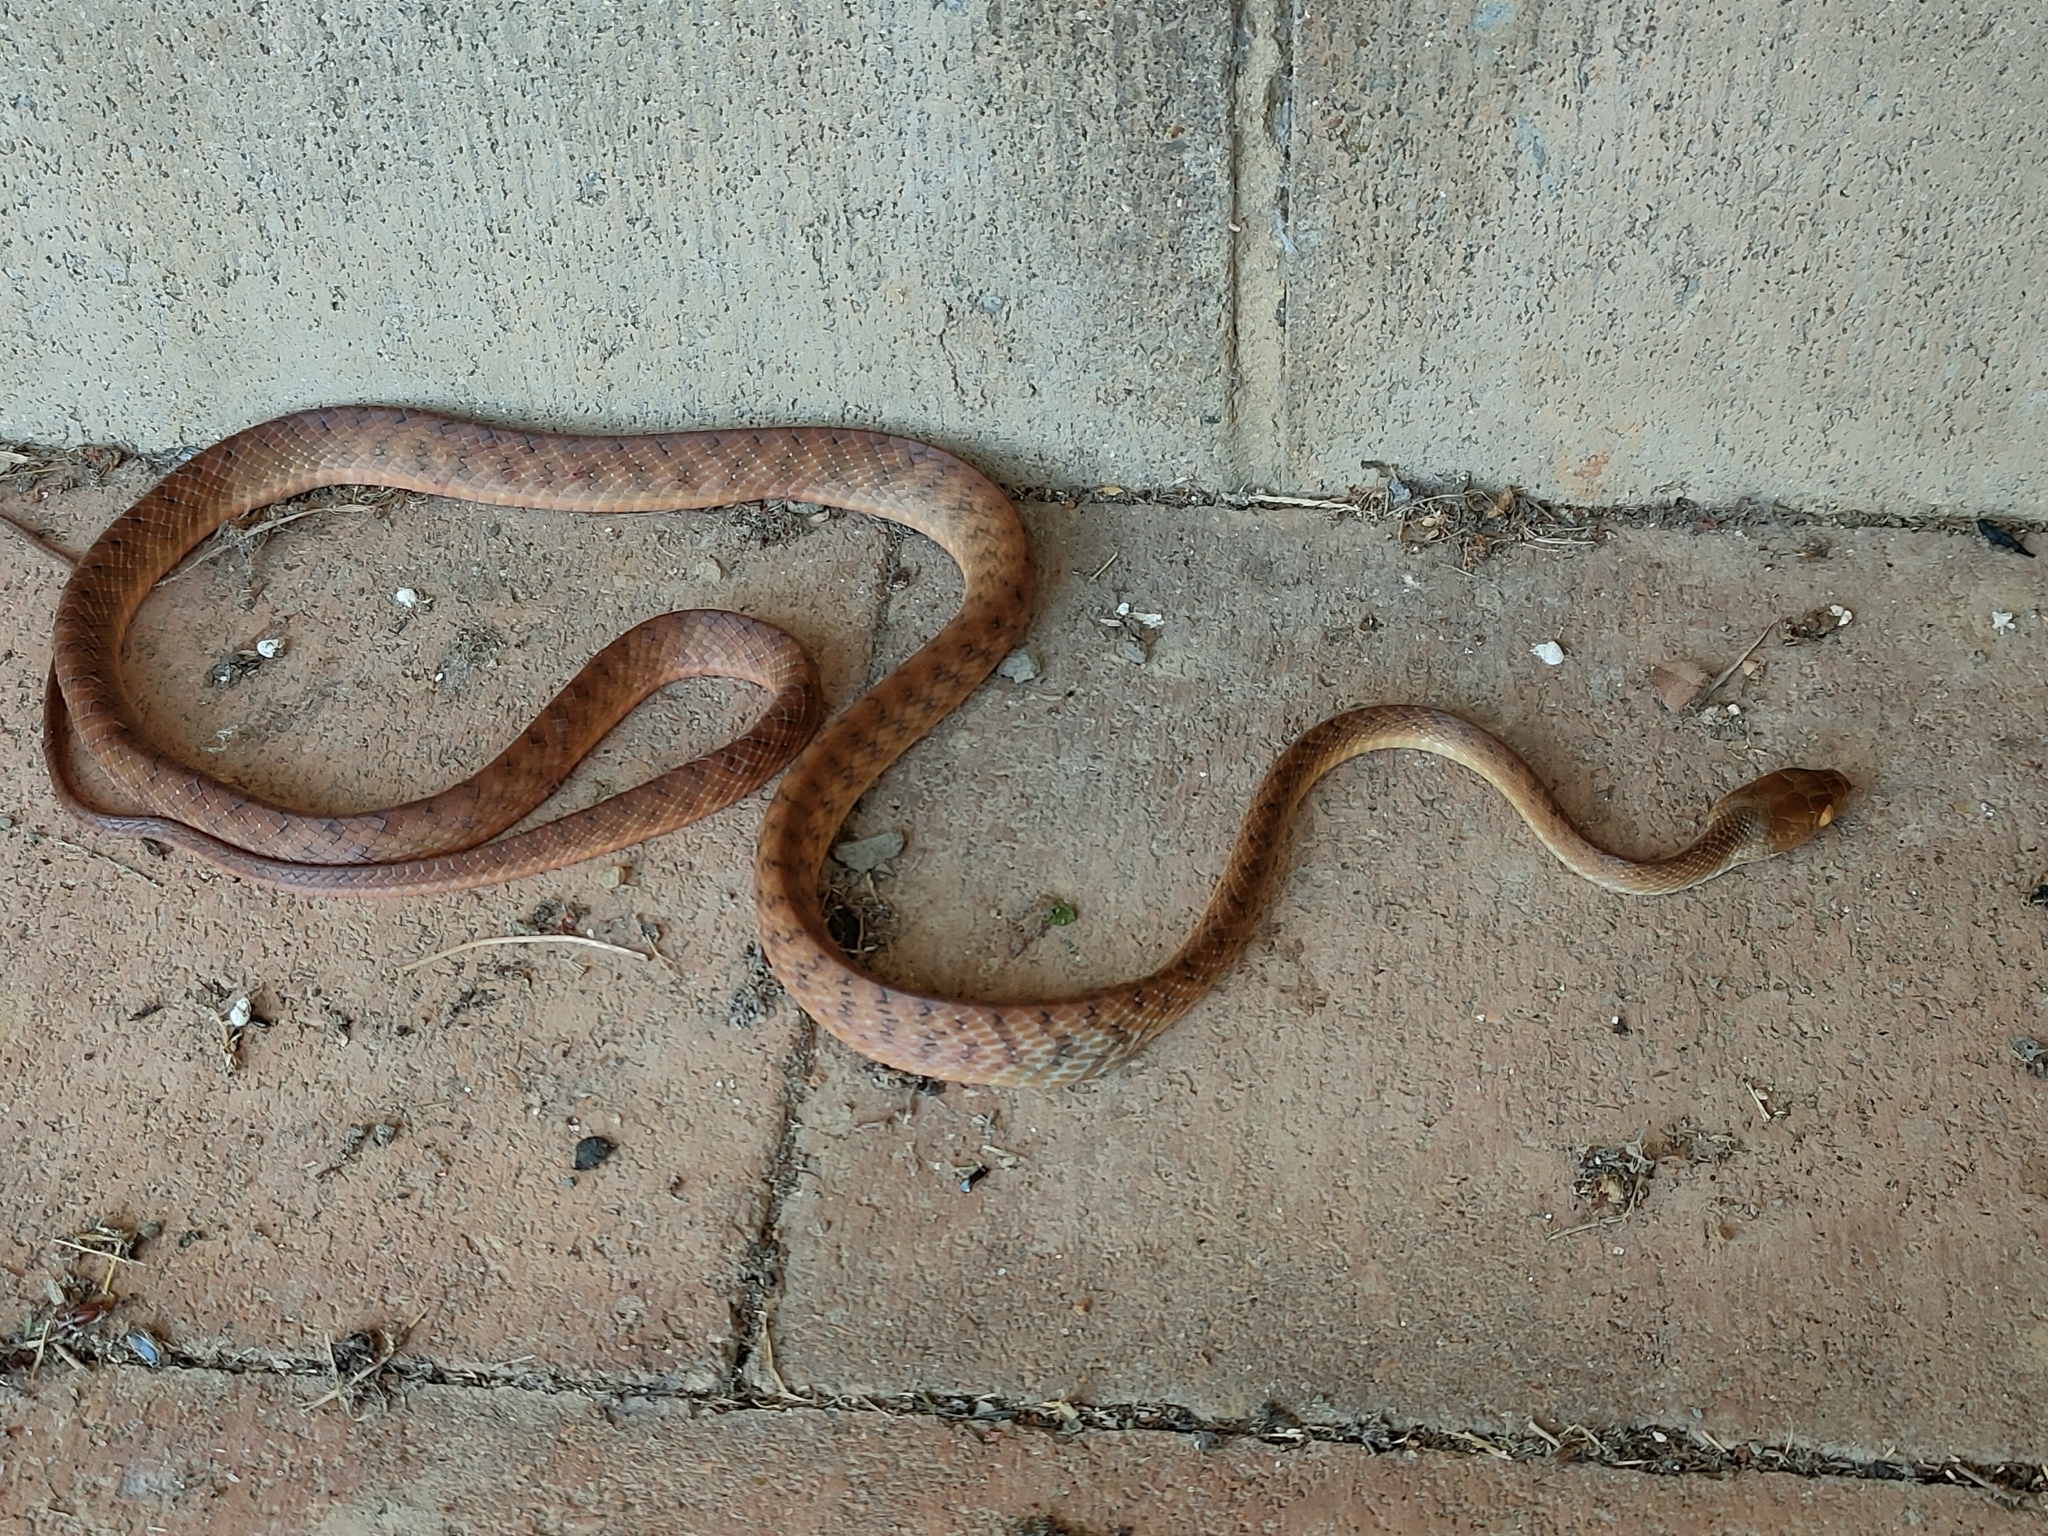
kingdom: Animalia
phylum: Chordata
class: Squamata
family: Colubridae
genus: Boiga
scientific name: Boiga irregularis
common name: Brown tree snake
